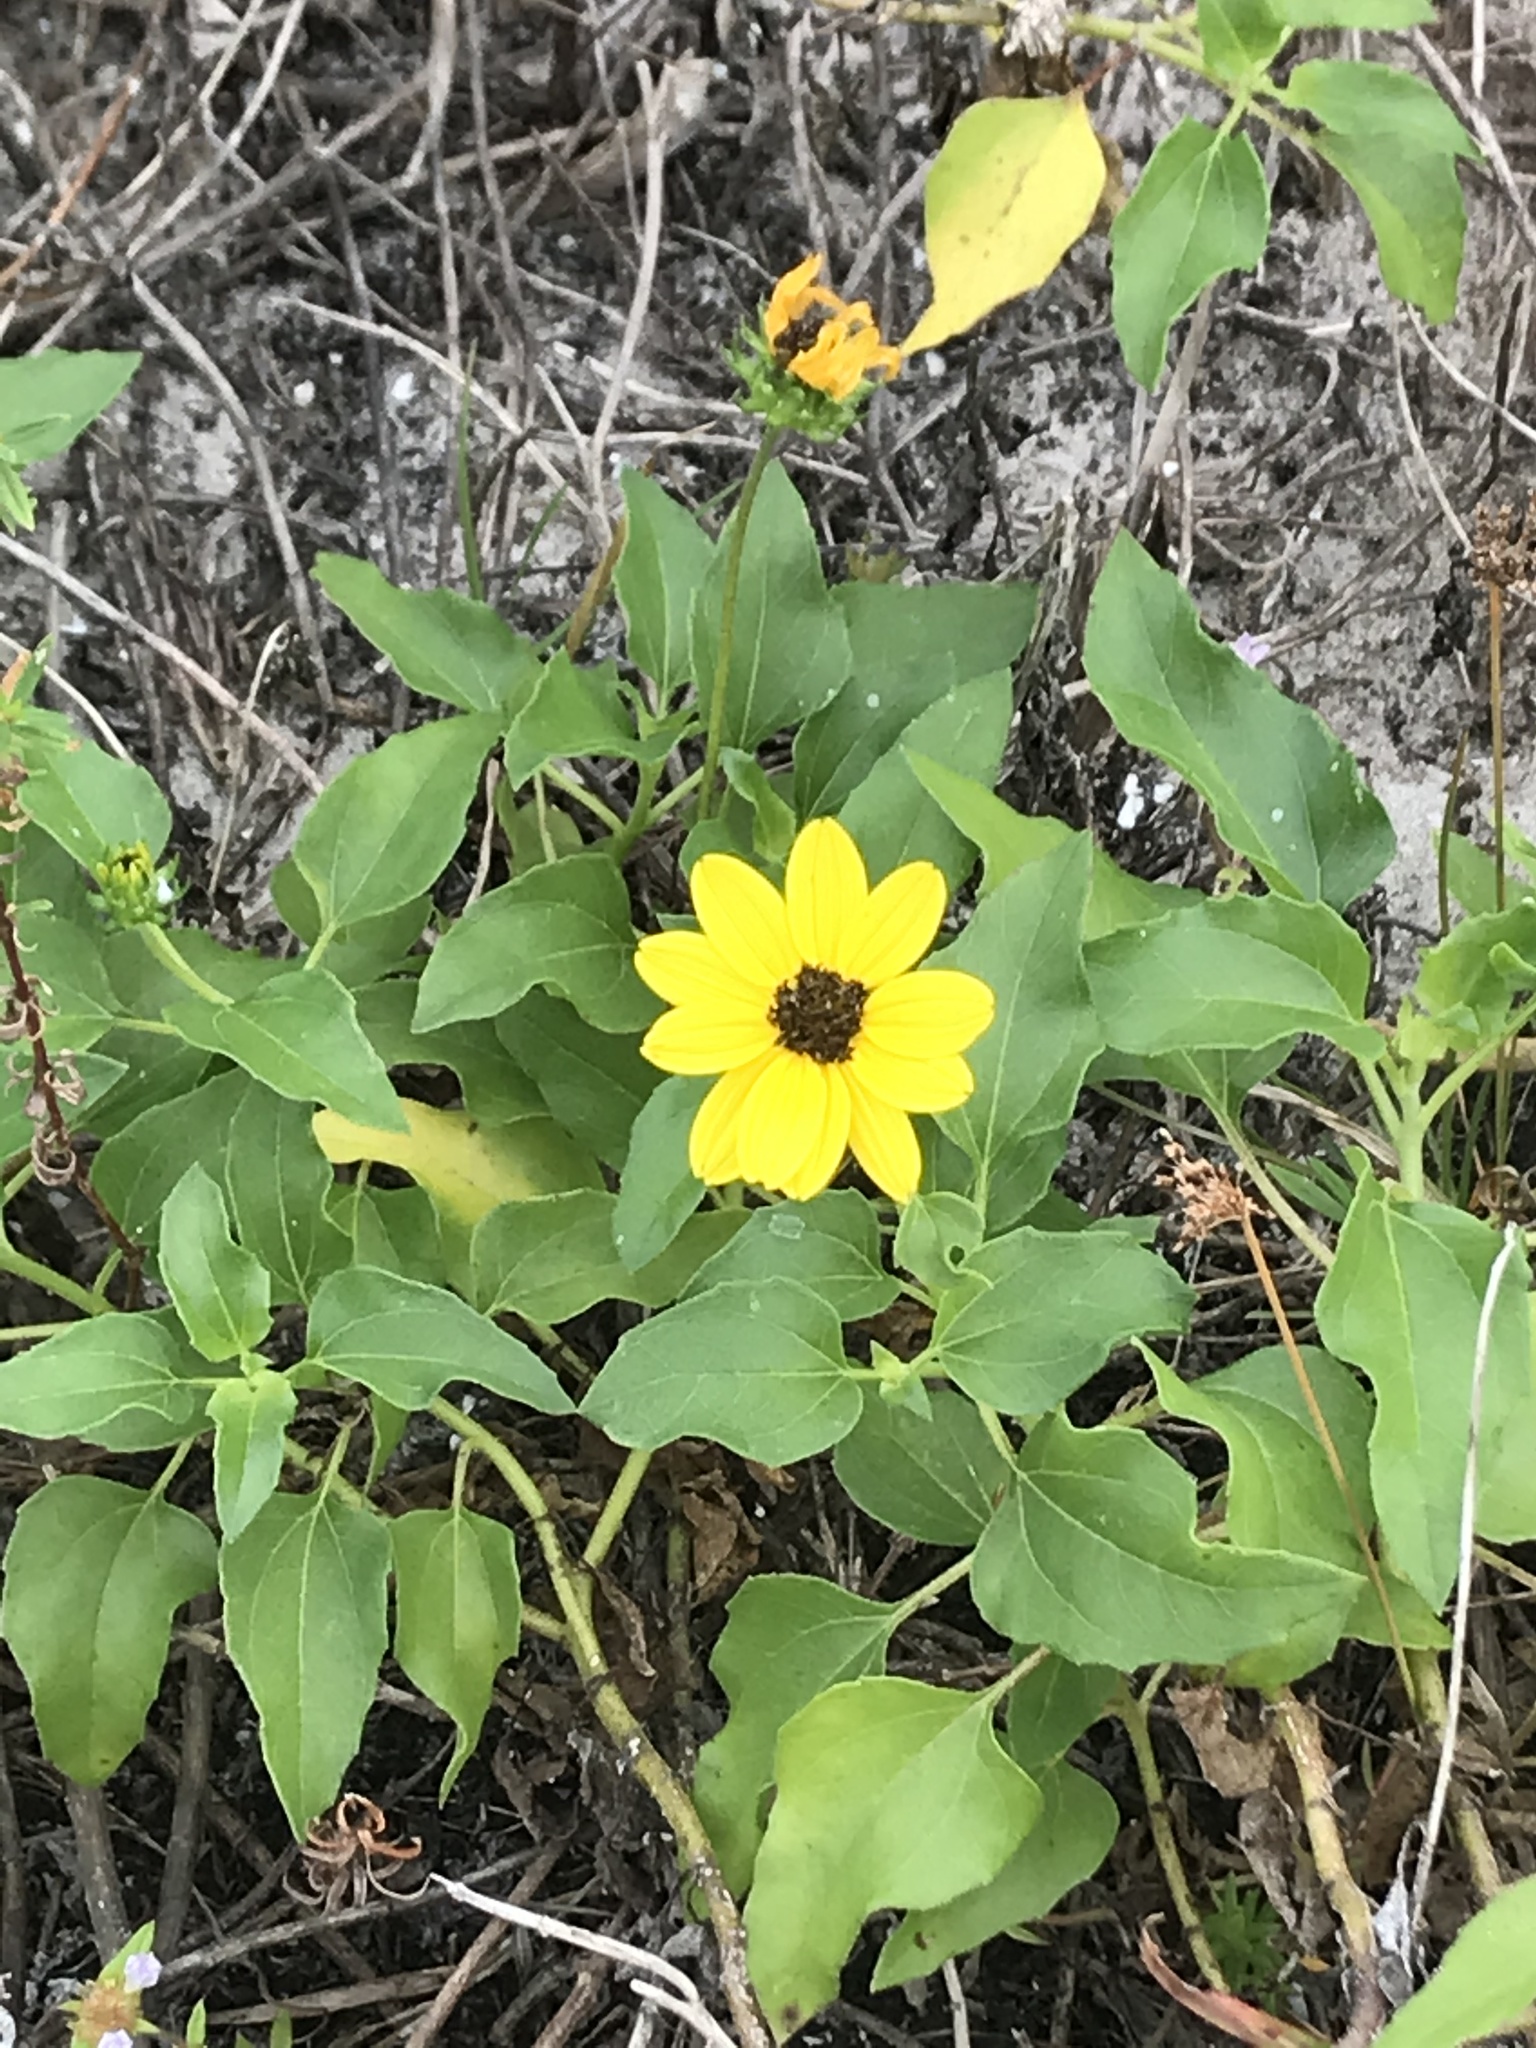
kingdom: Plantae
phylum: Tracheophyta
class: Magnoliopsida
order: Asterales
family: Asteraceae
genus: Helianthus
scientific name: Helianthus debilis
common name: Weak sunflower
